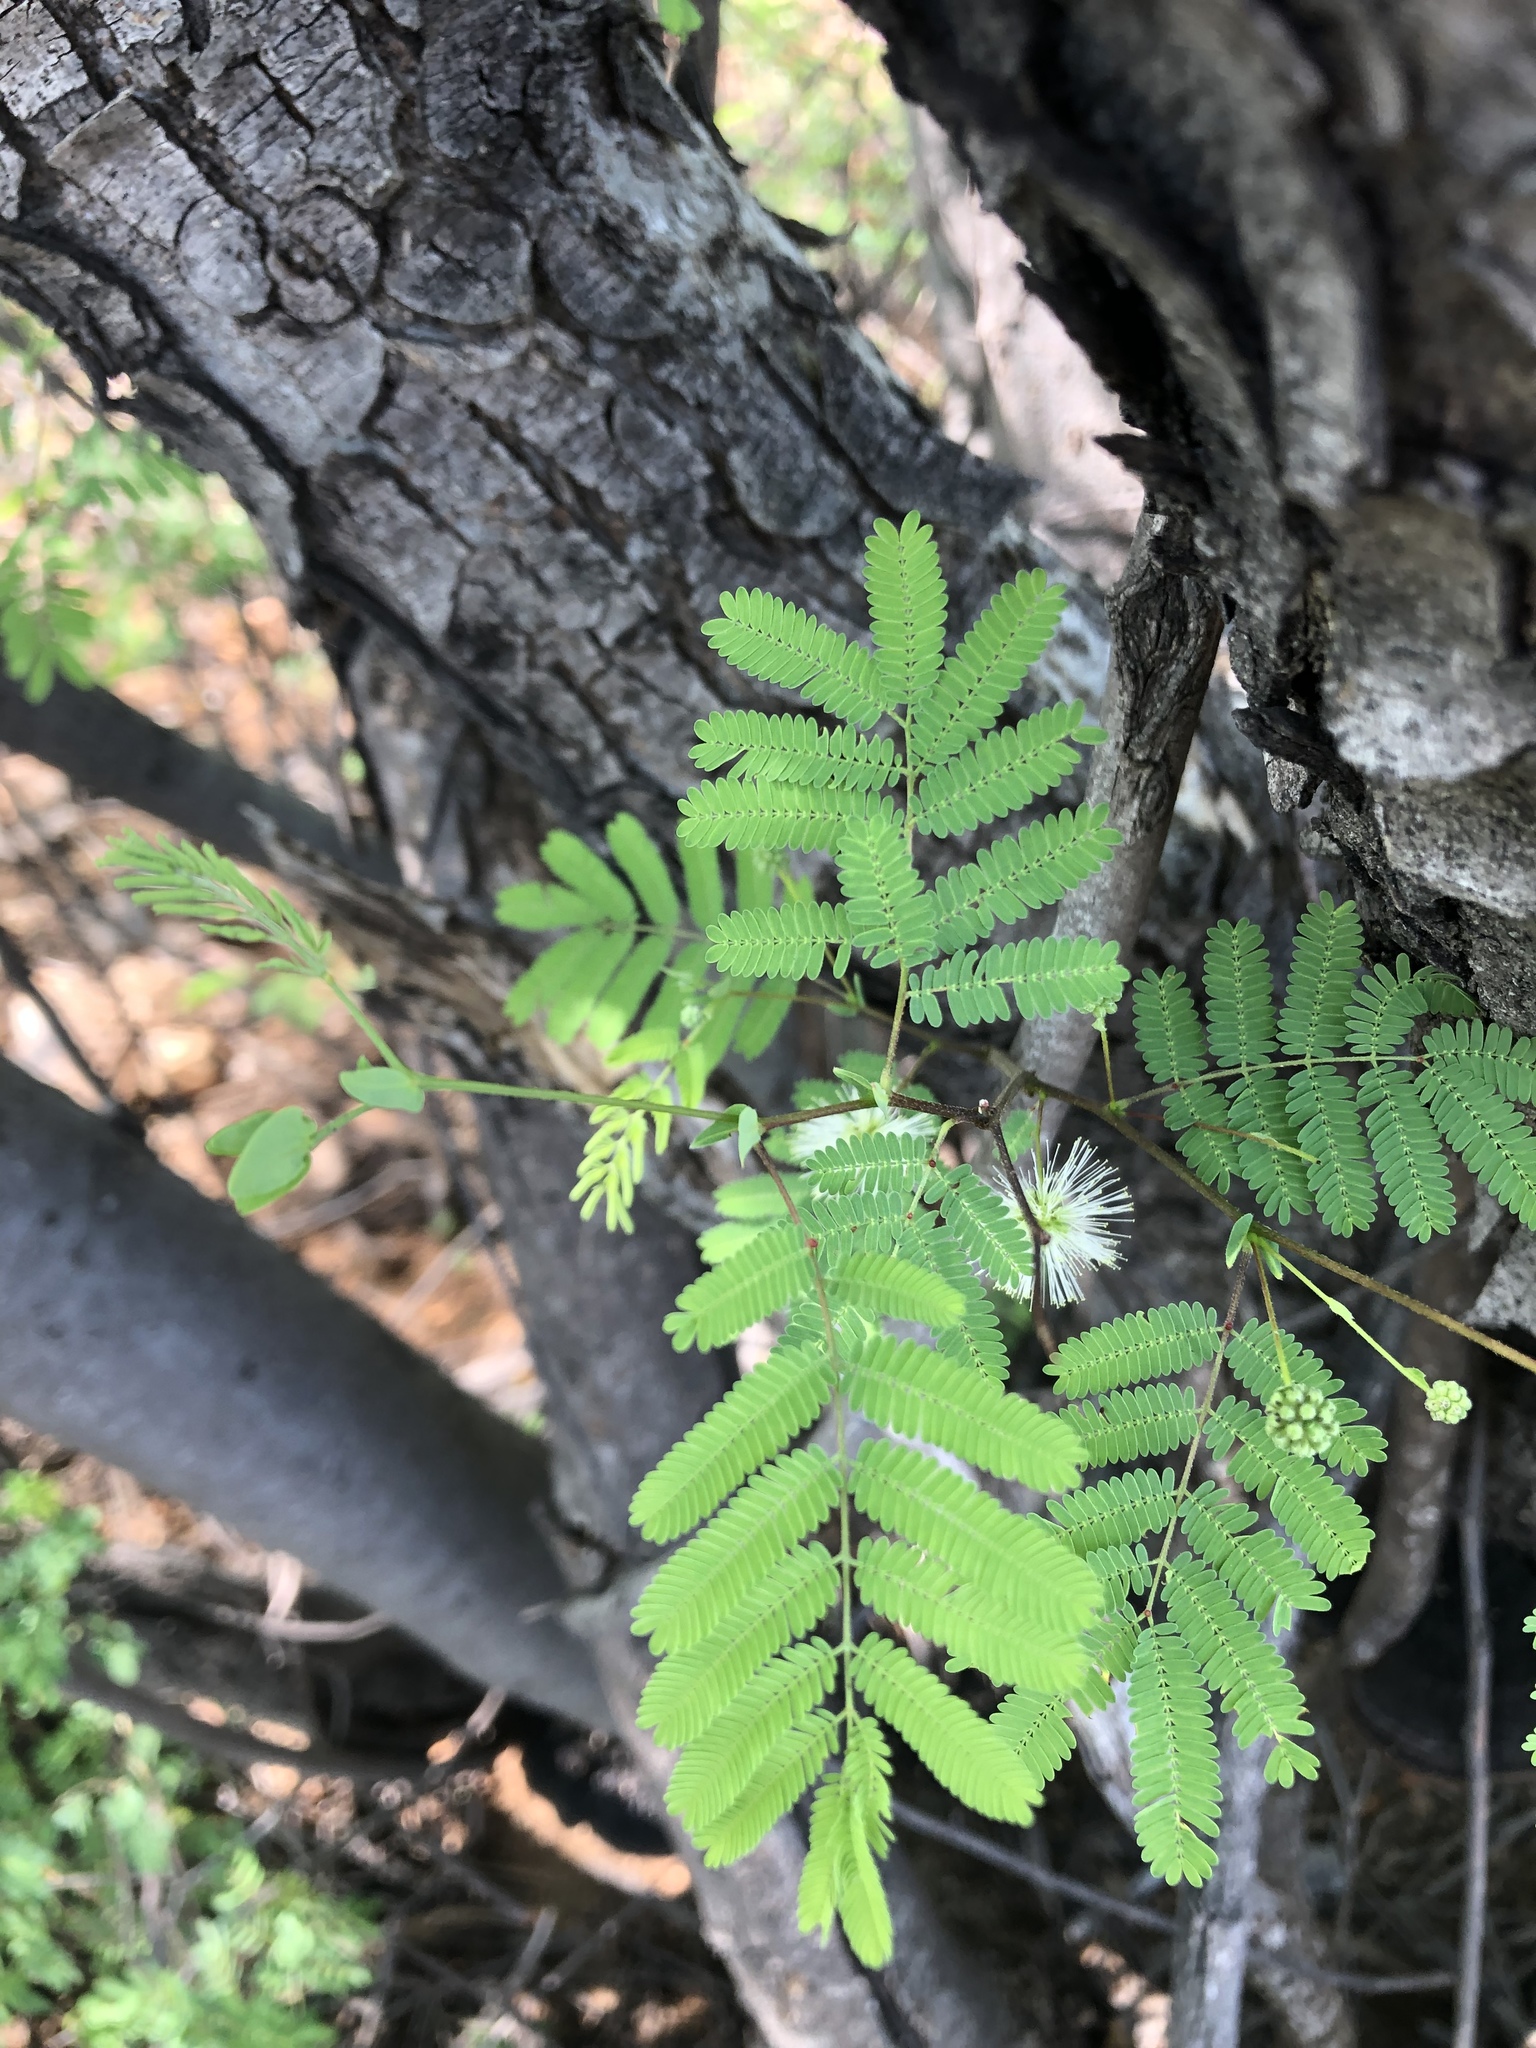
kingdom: Plantae
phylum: Tracheophyta
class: Magnoliopsida
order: Fabales
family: Fabaceae
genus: Lysiloma
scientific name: Lysiloma divaricatum
